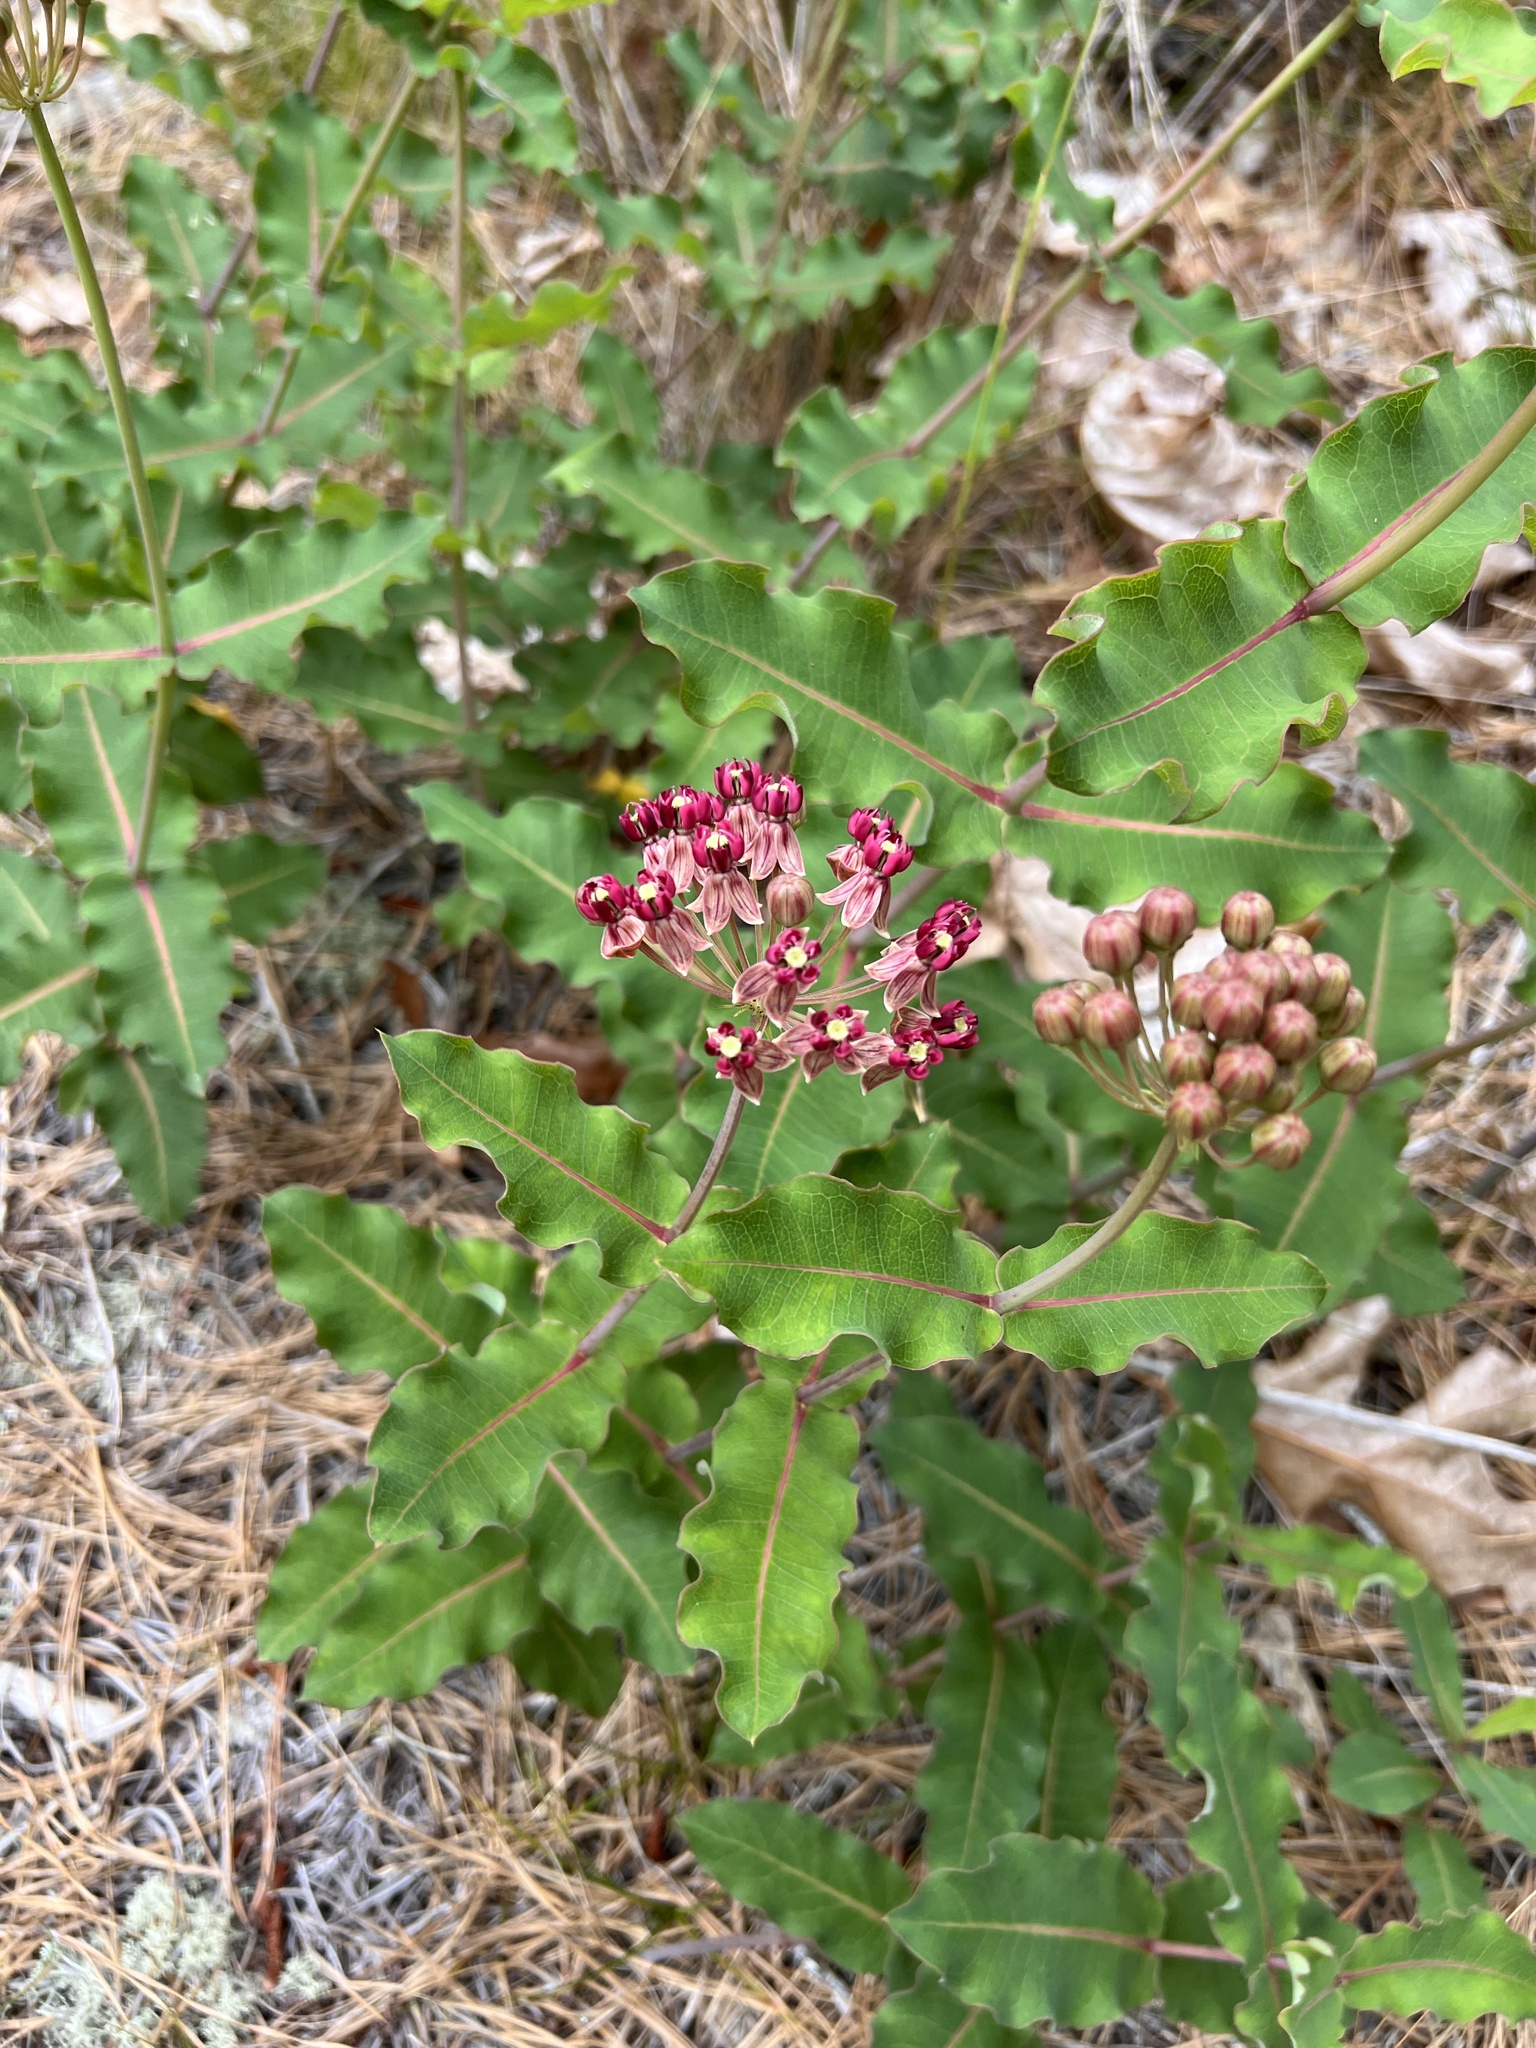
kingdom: Plantae
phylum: Tracheophyta
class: Magnoliopsida
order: Gentianales
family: Apocynaceae
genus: Asclepias
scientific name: Asclepias amplexicaulis
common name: Blunt-leaf milkweed
